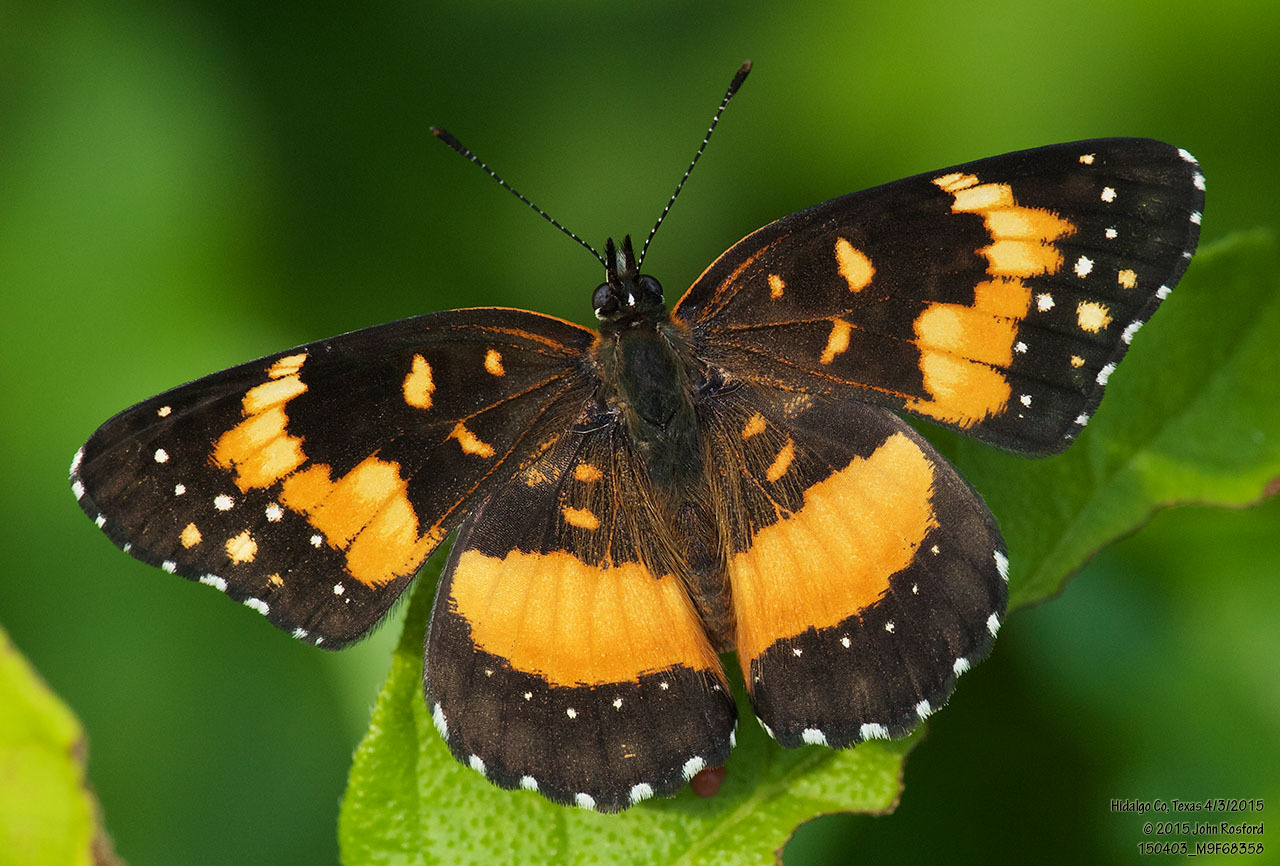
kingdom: Animalia
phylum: Arthropoda
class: Insecta
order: Lepidoptera
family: Nymphalidae
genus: Chlosyne
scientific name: Chlosyne lacinia
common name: Bordered patch
